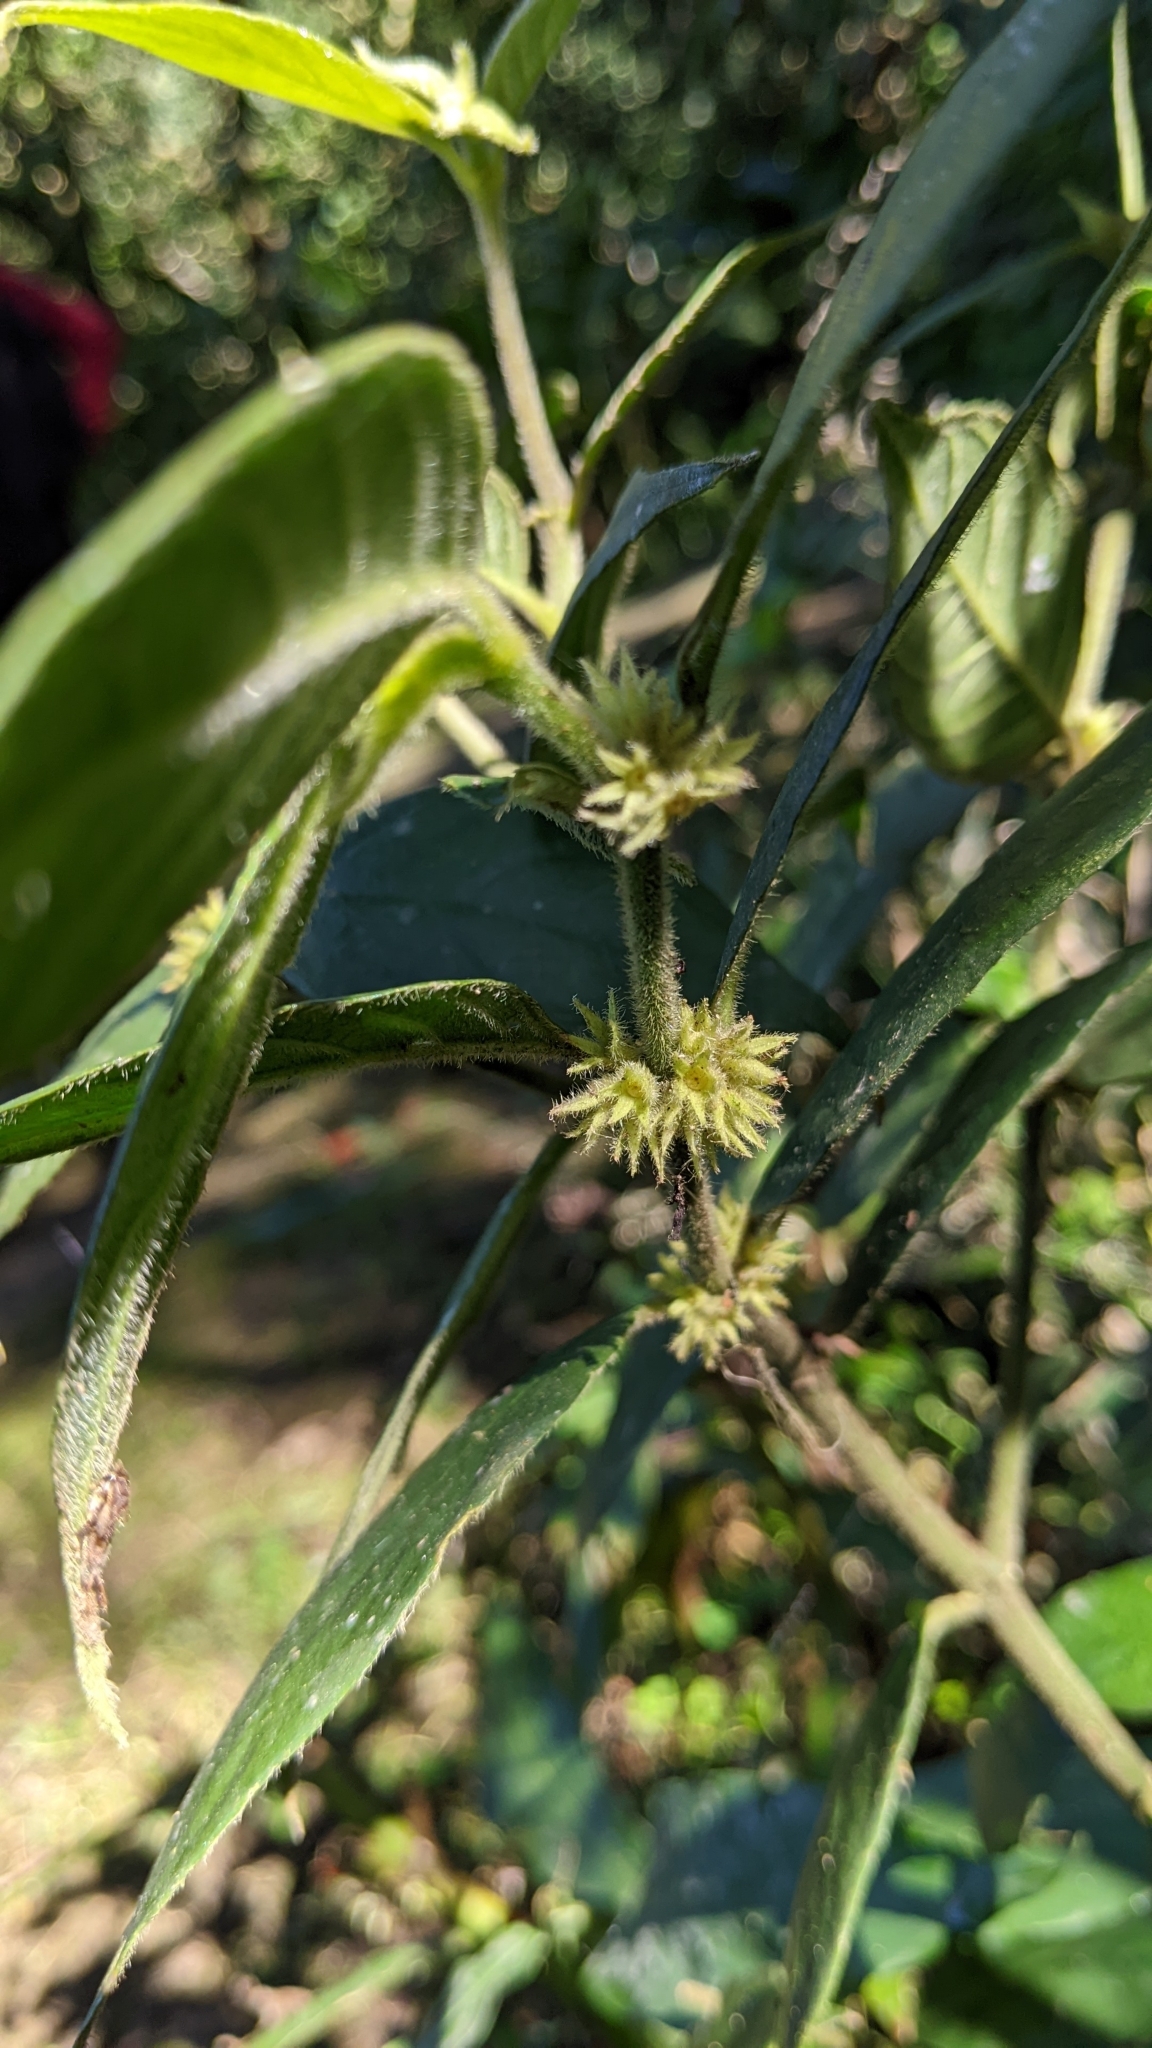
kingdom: Plantae
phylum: Tracheophyta
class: Magnoliopsida
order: Gentianales
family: Rubiaceae
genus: Lasianthus
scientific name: Lasianthus curtisii
